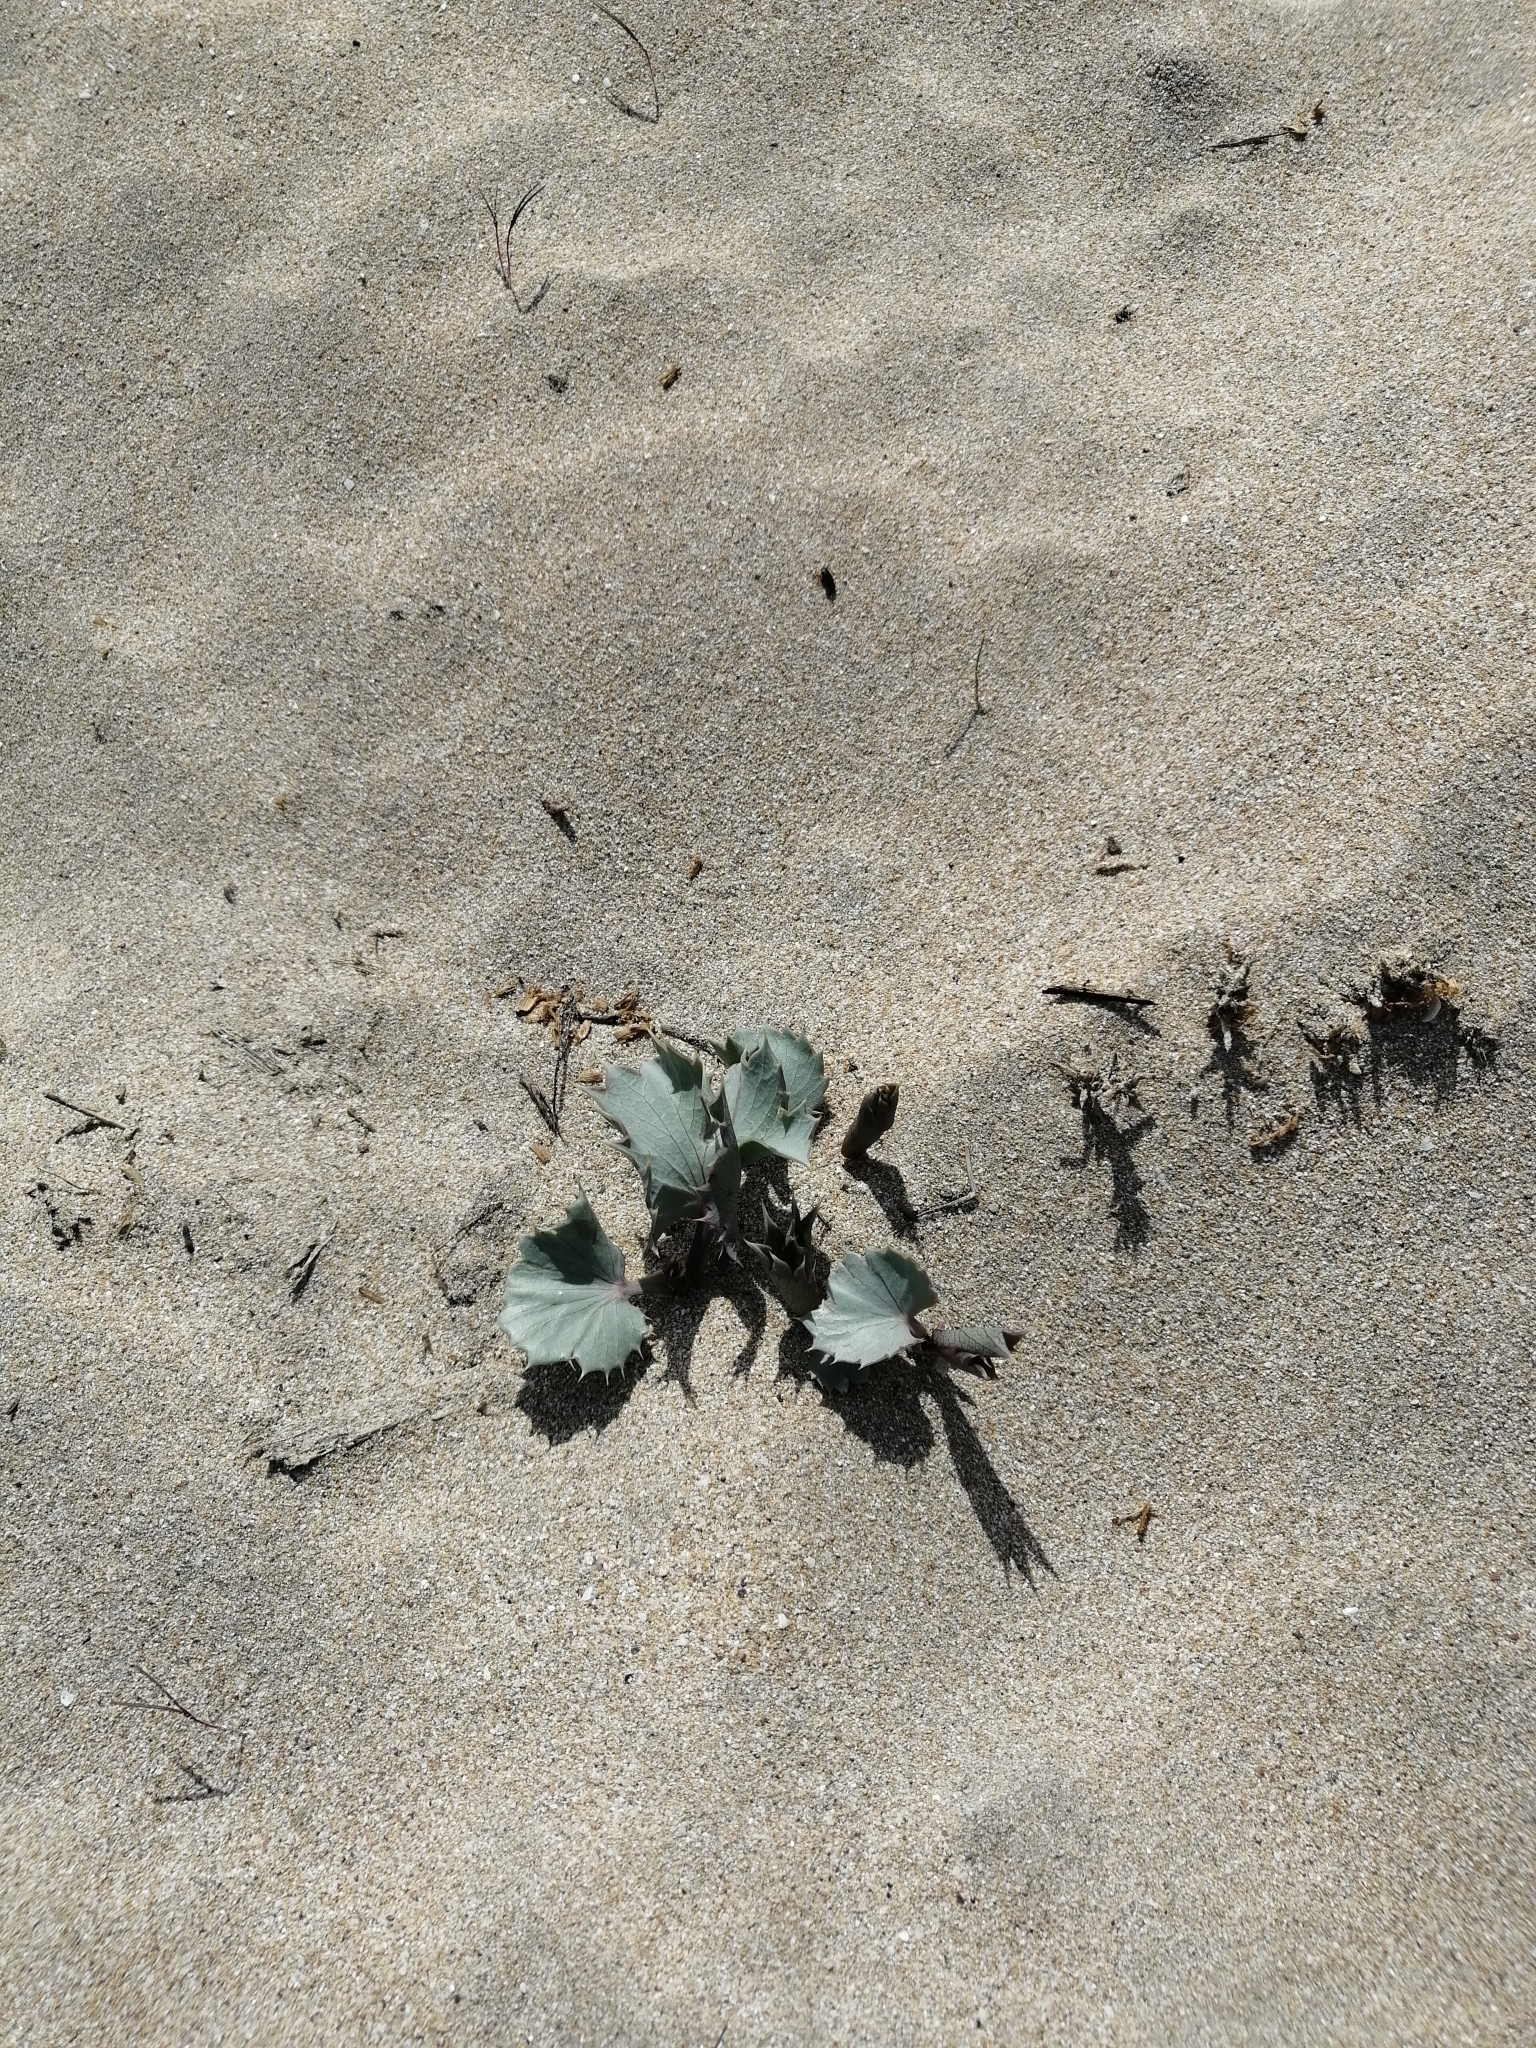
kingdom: Plantae
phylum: Tracheophyta
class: Magnoliopsida
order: Apiales
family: Apiaceae
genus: Eryngium
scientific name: Eryngium maritimum
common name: Sea-holly
